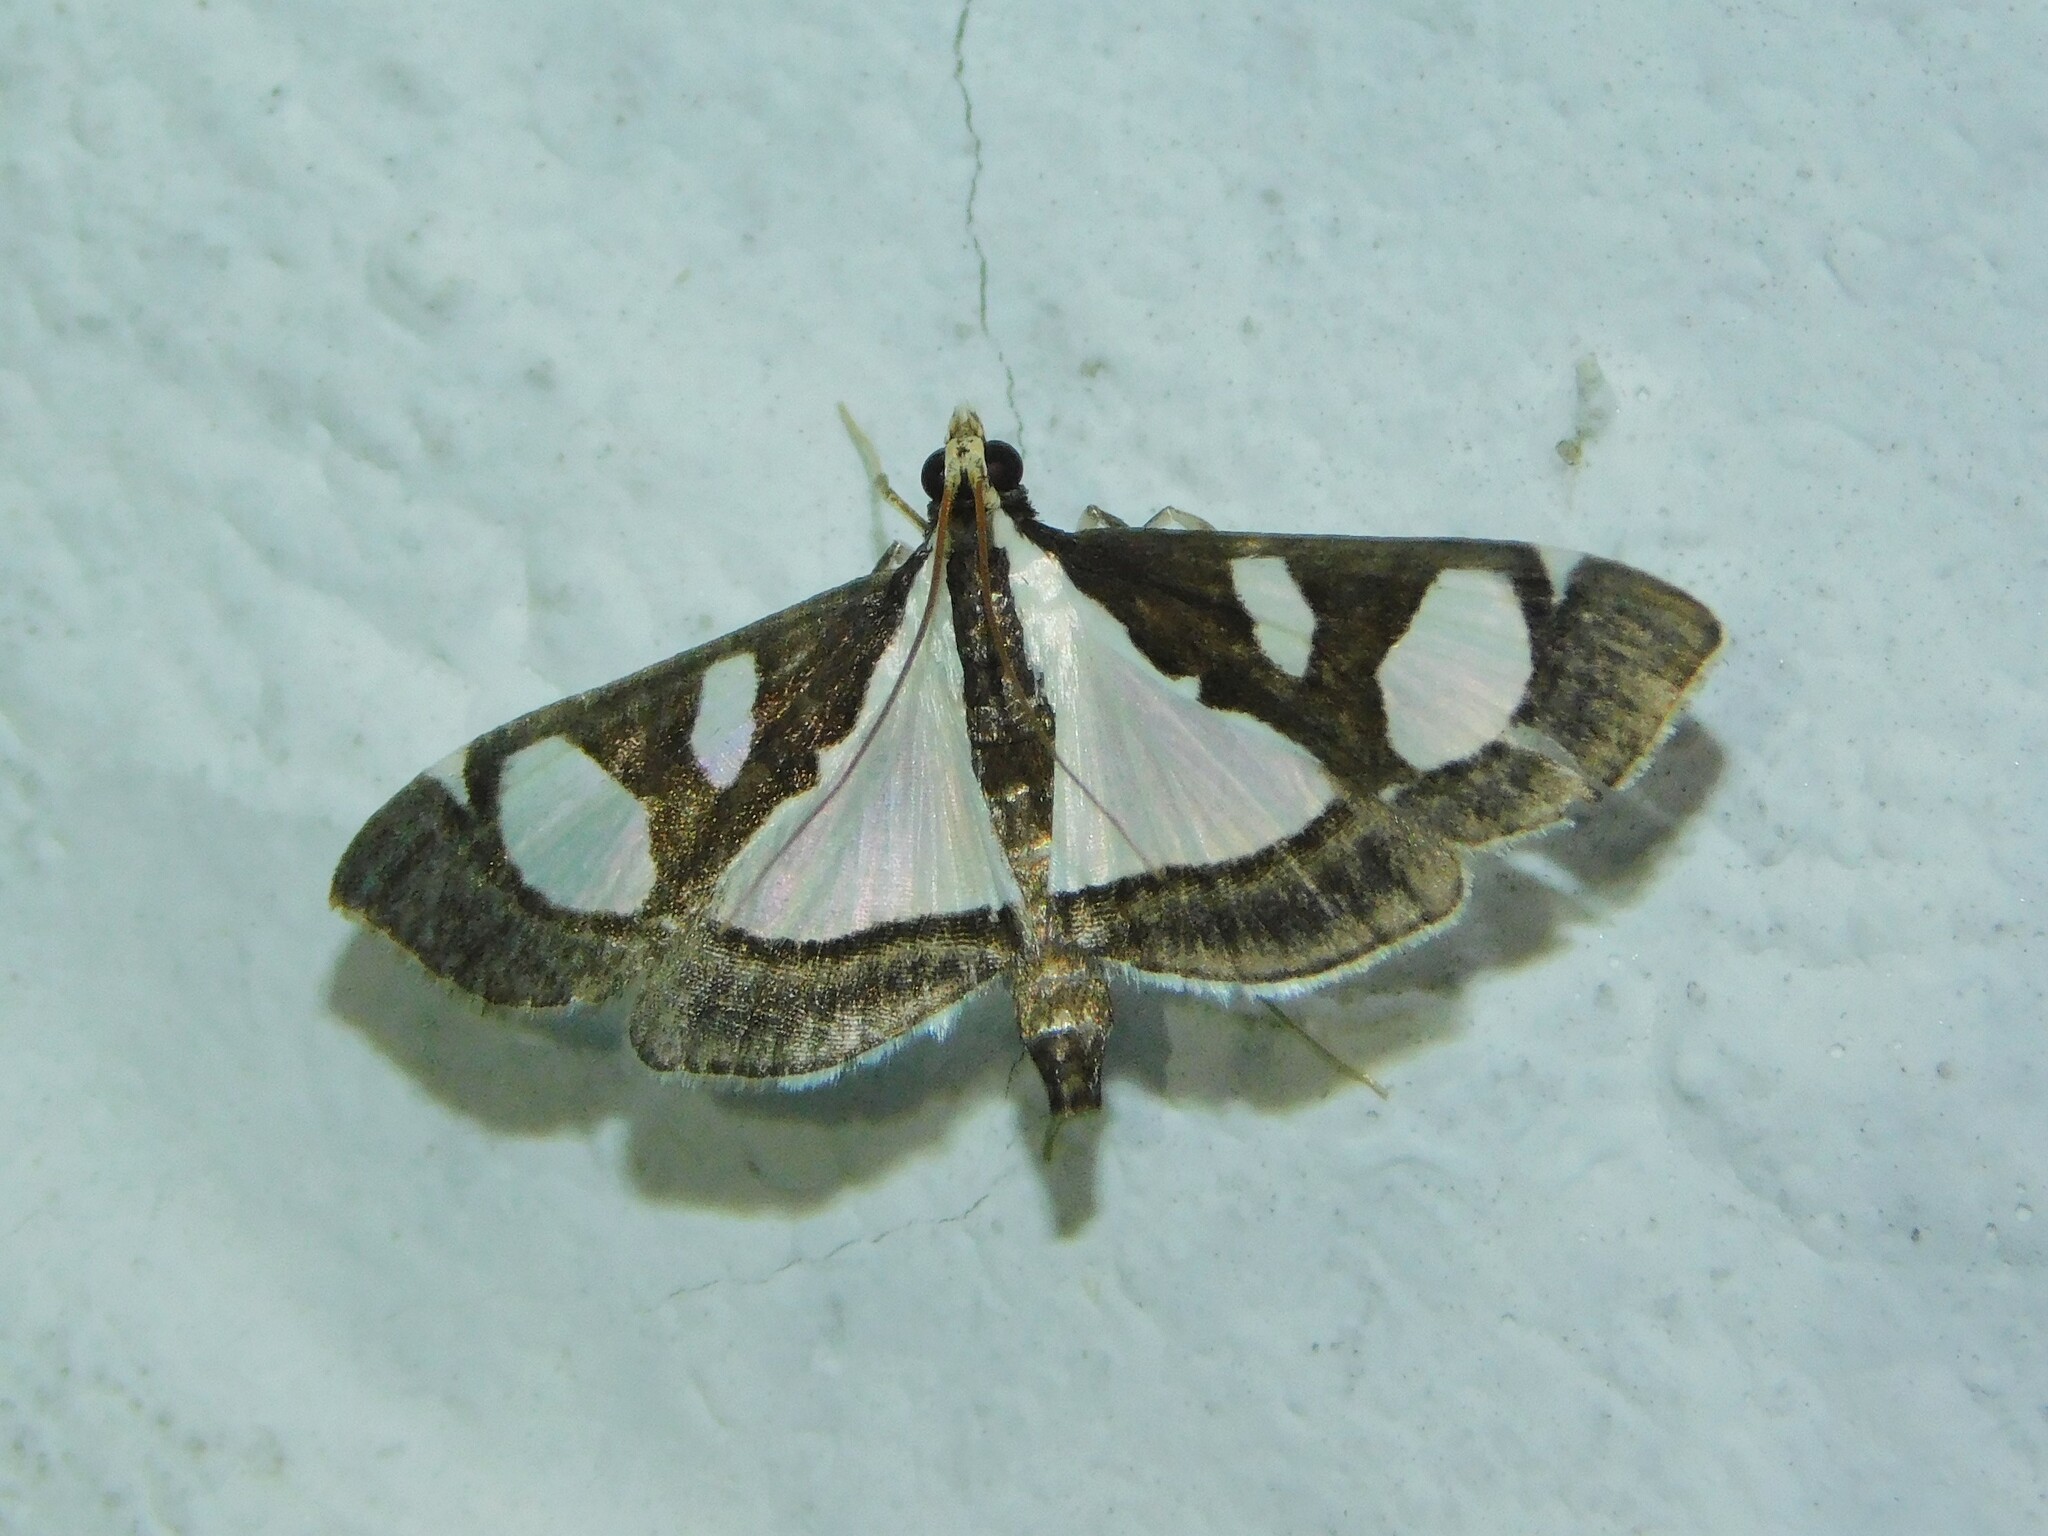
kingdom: Animalia
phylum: Arthropoda
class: Insecta
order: Lepidoptera
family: Crambidae
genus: Glyphodes
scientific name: Glyphodes bicolor
